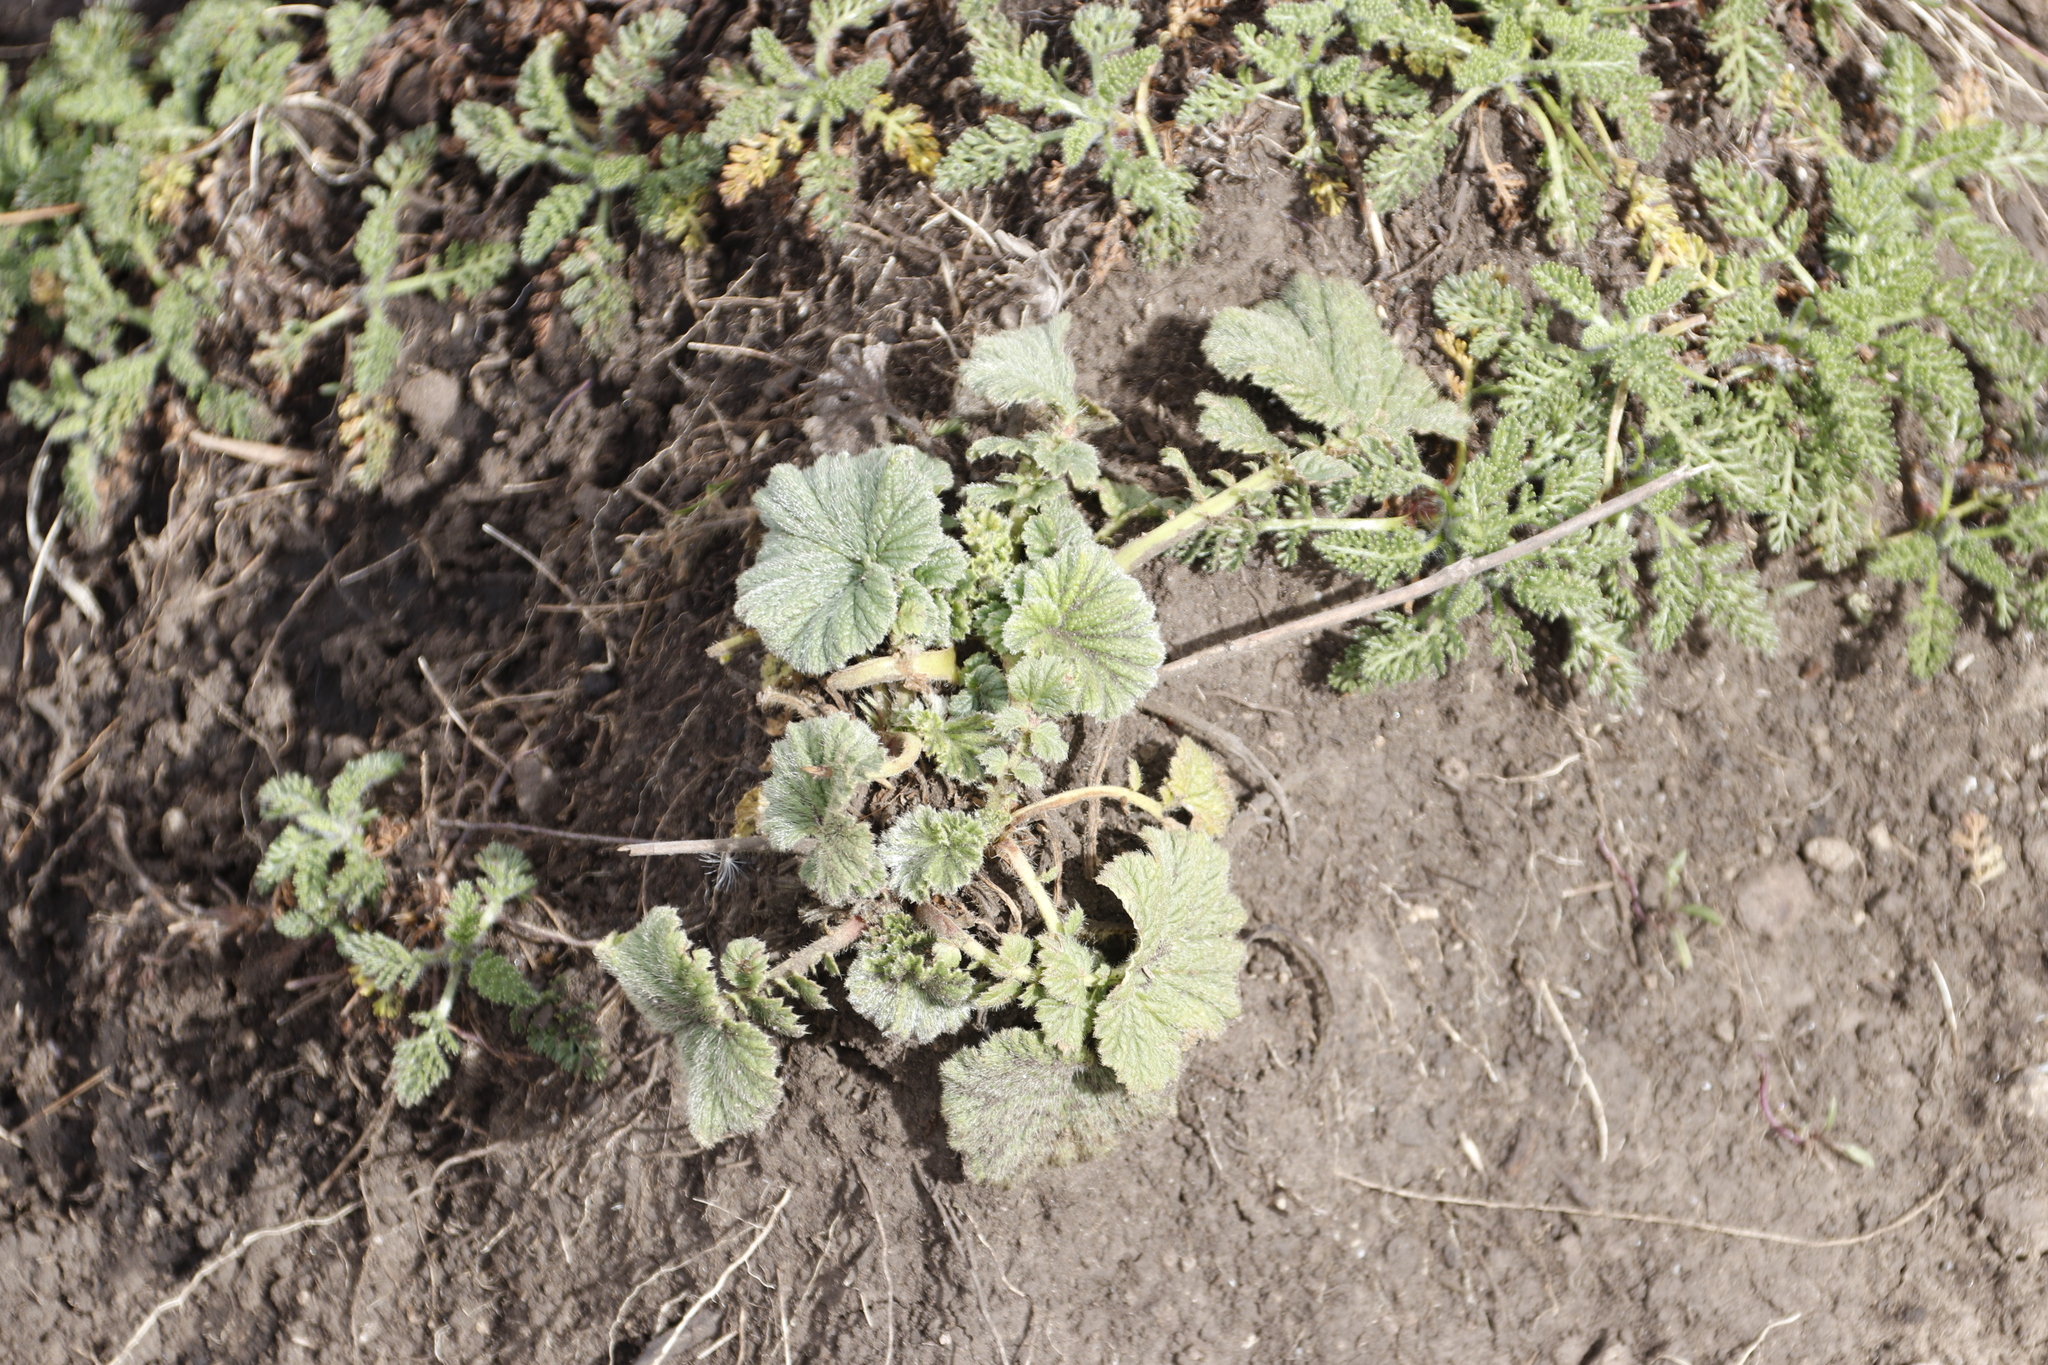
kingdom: Plantae
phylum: Tracheophyta
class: Magnoliopsida
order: Rosales
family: Rosaceae
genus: Geum
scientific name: Geum capense
